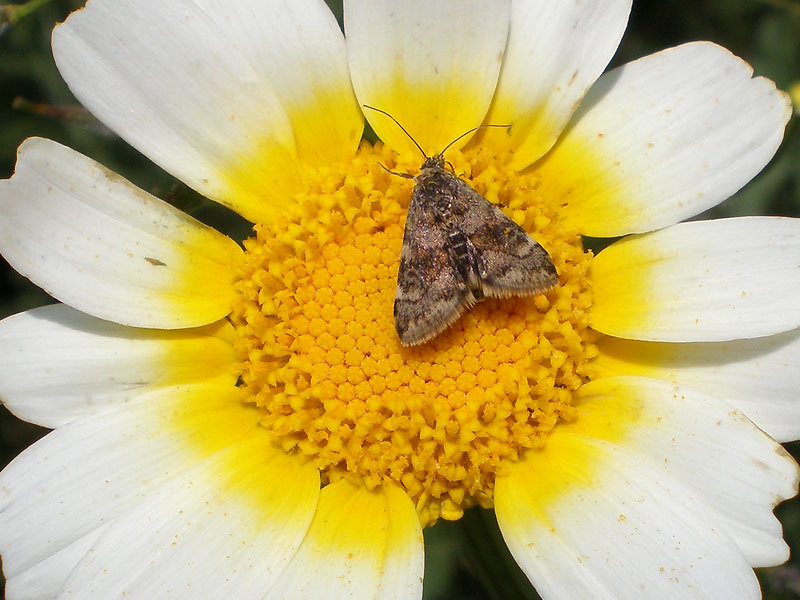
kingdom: Animalia
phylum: Arthropoda
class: Insecta
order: Lepidoptera
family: Crambidae
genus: Noctuelia
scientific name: Noctuelia Aporodes floralis
